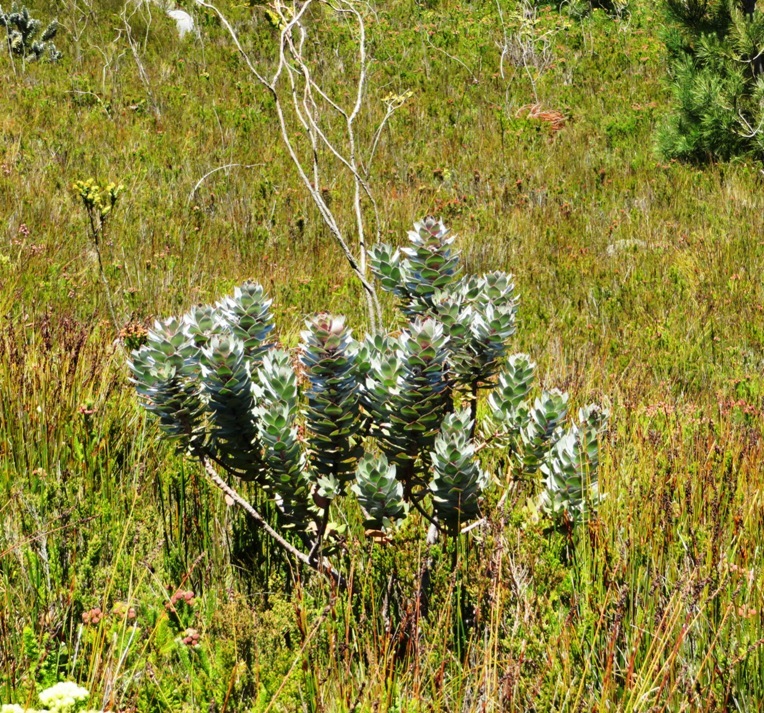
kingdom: Plantae
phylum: Tracheophyta
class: Magnoliopsida
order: Proteales
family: Proteaceae
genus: Mimetes
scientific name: Mimetes argenteus
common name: Silver pagoda
